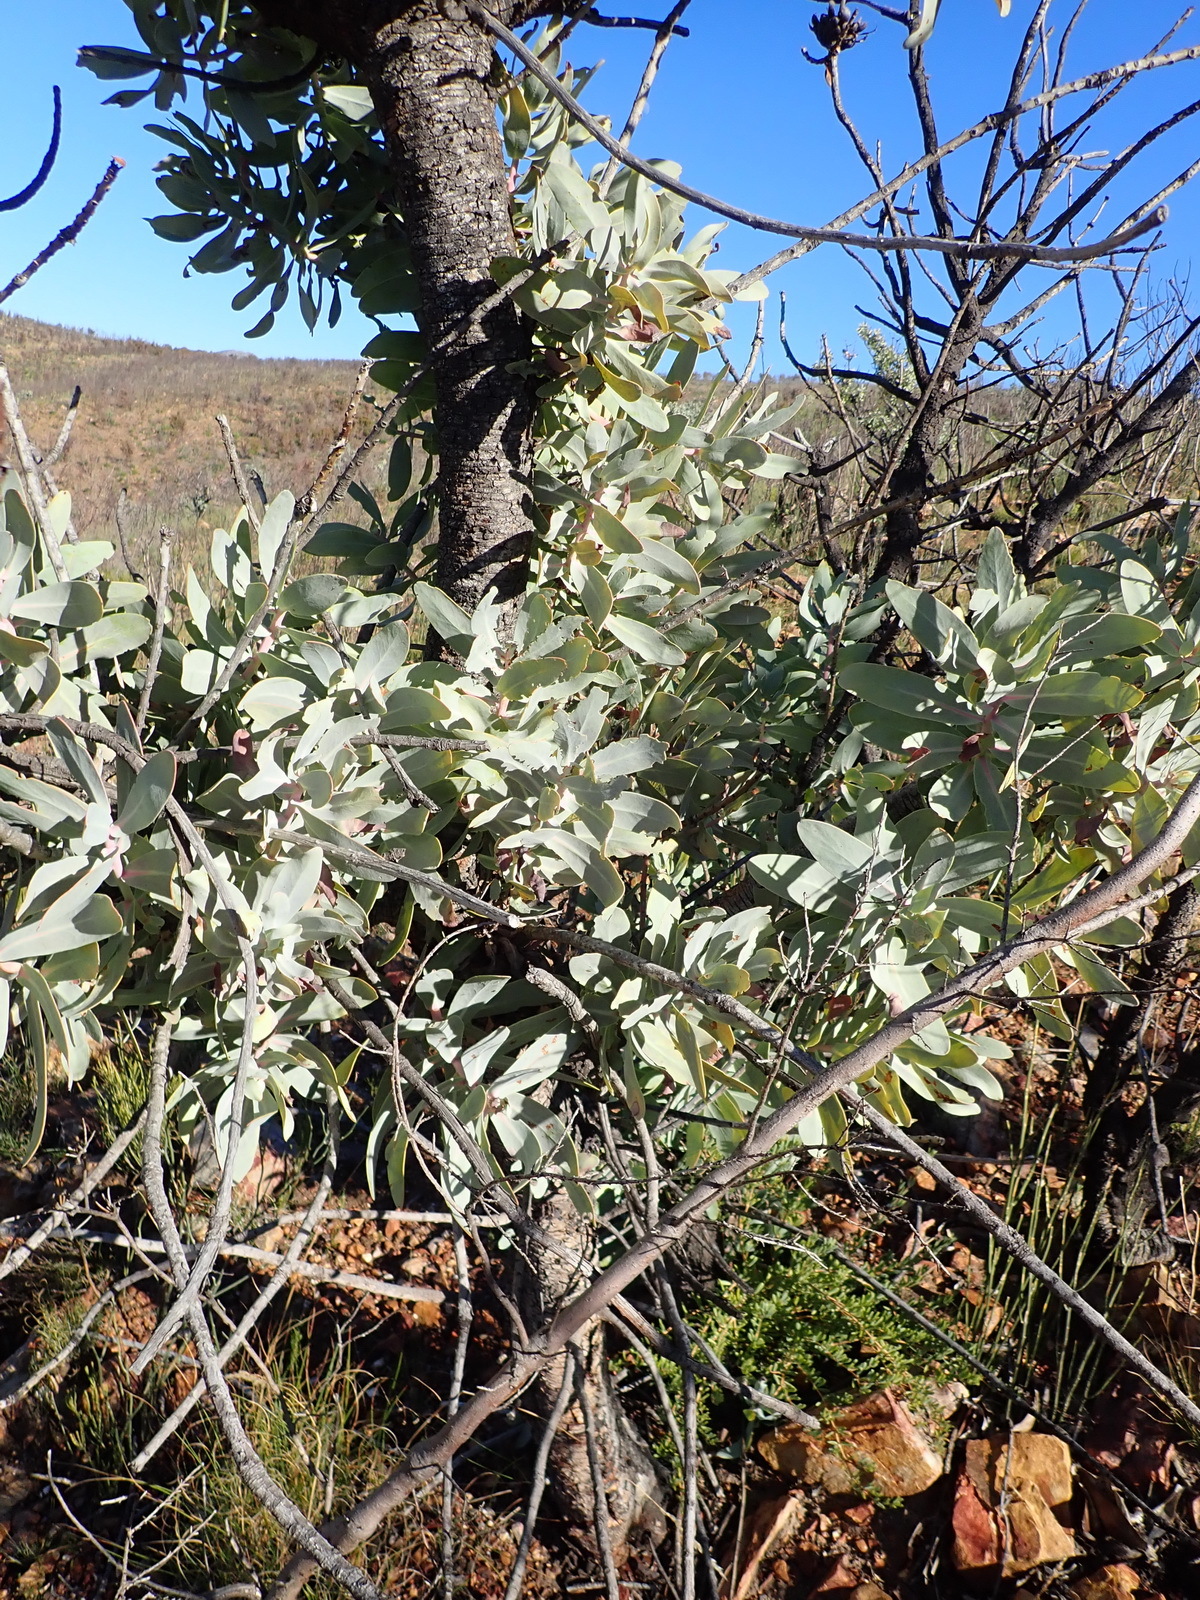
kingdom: Plantae
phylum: Tracheophyta
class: Magnoliopsida
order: Proteales
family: Proteaceae
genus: Protea
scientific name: Protea nitida
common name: Tree protea
